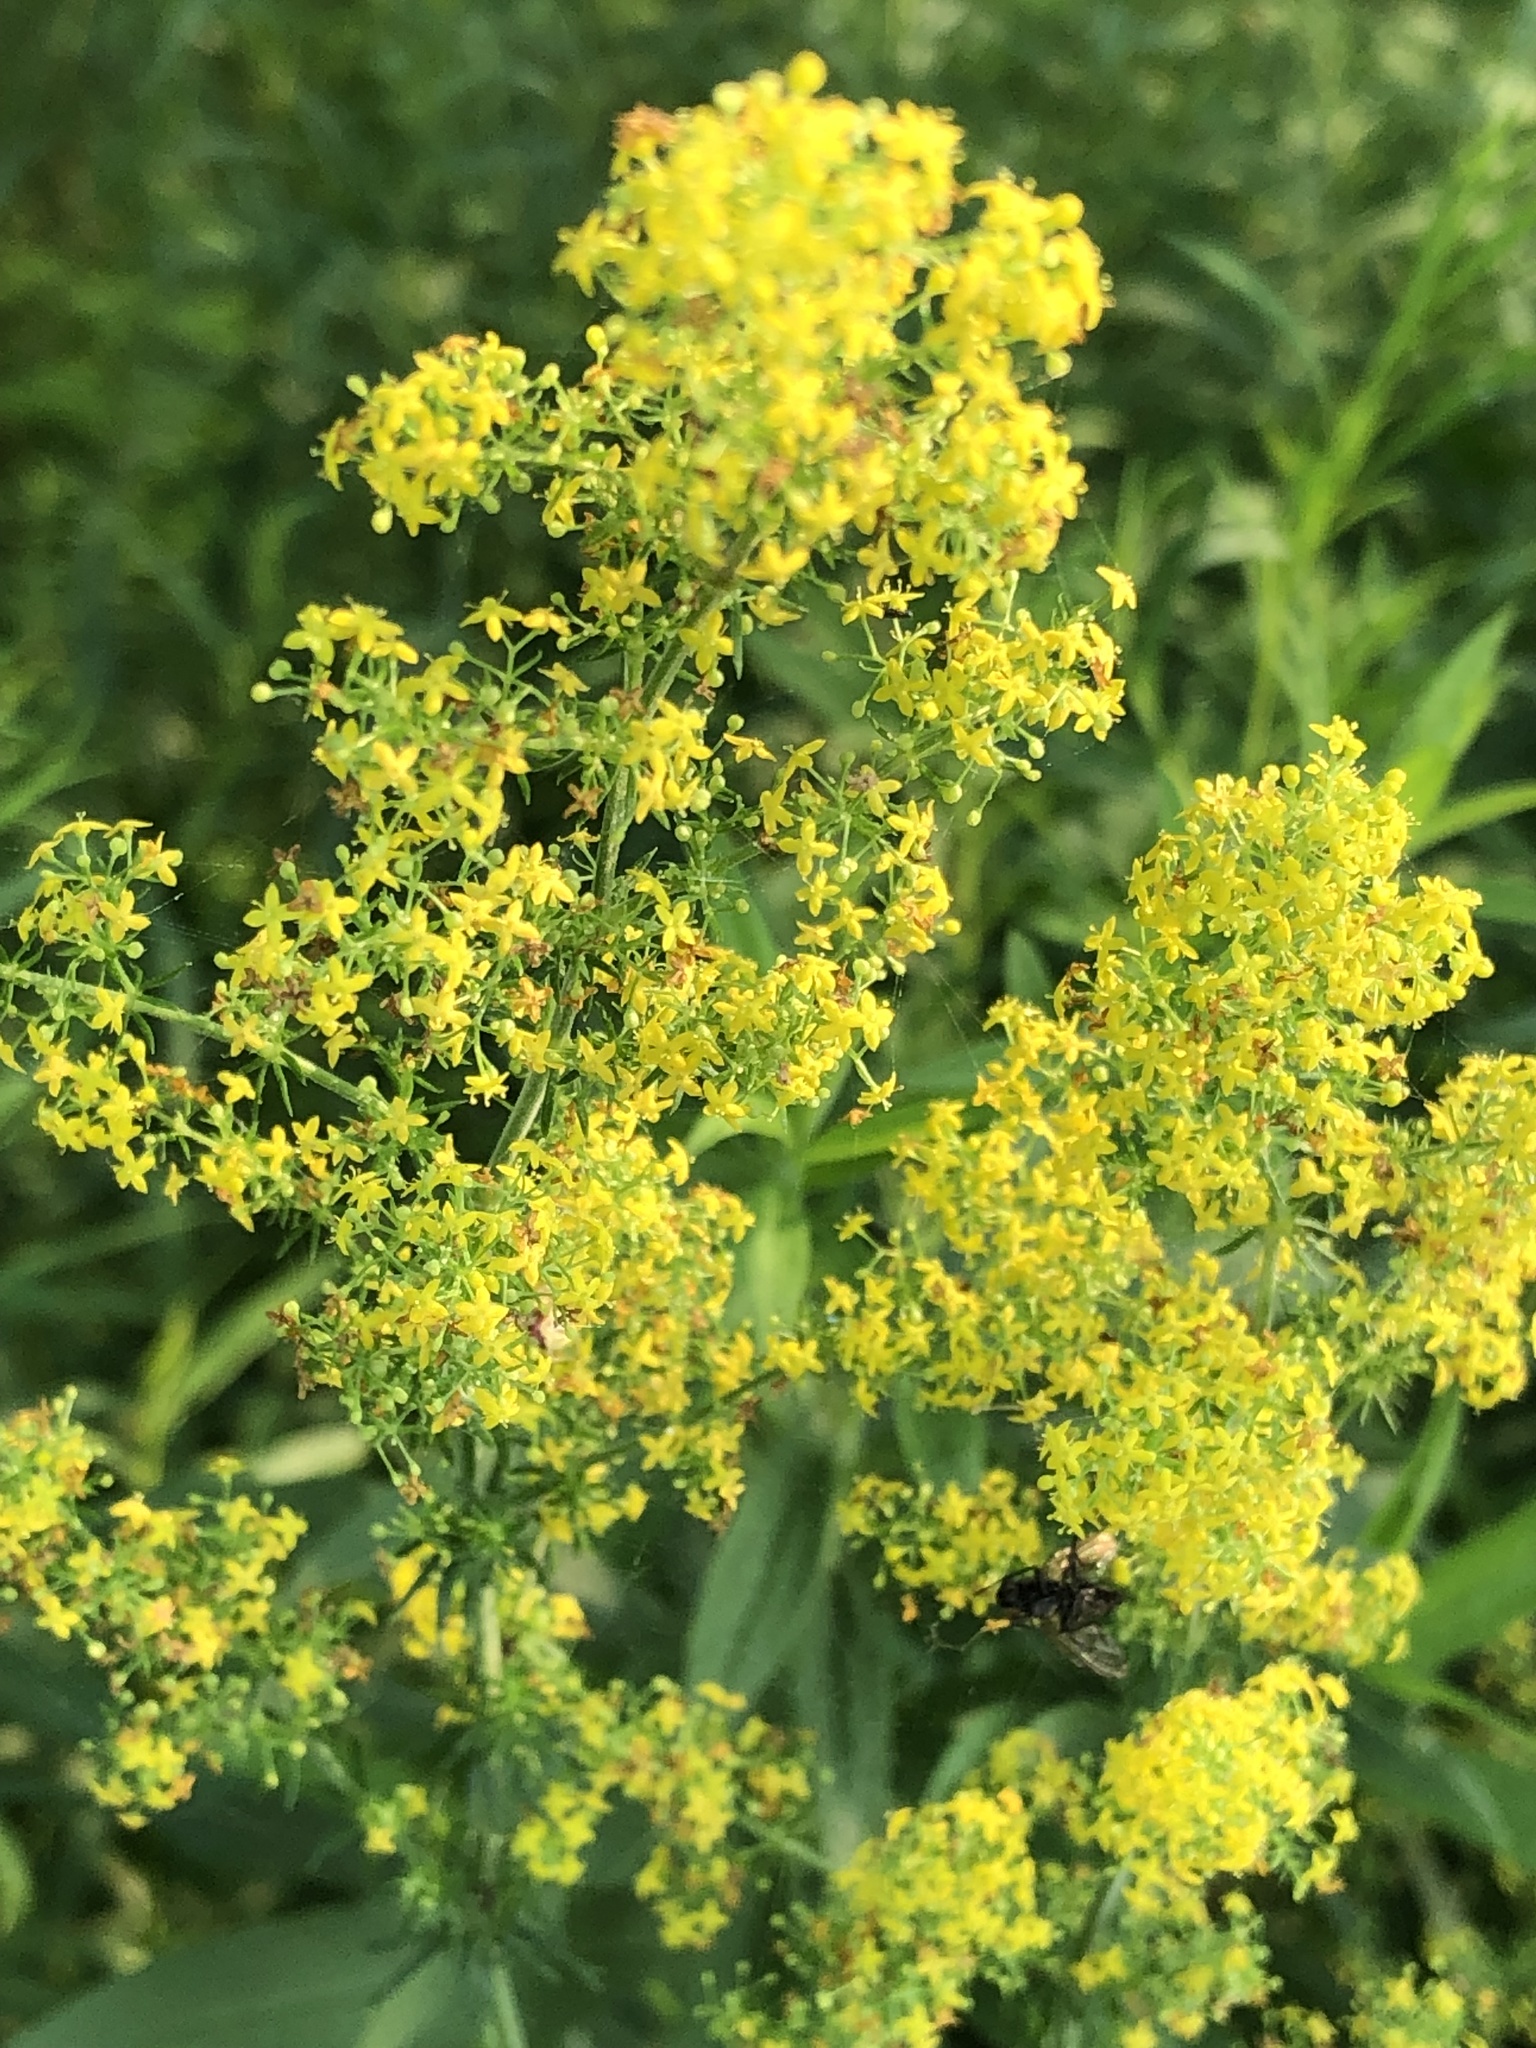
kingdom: Plantae
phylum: Tracheophyta
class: Magnoliopsida
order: Gentianales
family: Rubiaceae
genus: Galium
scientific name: Galium verum
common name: Lady's bedstraw
